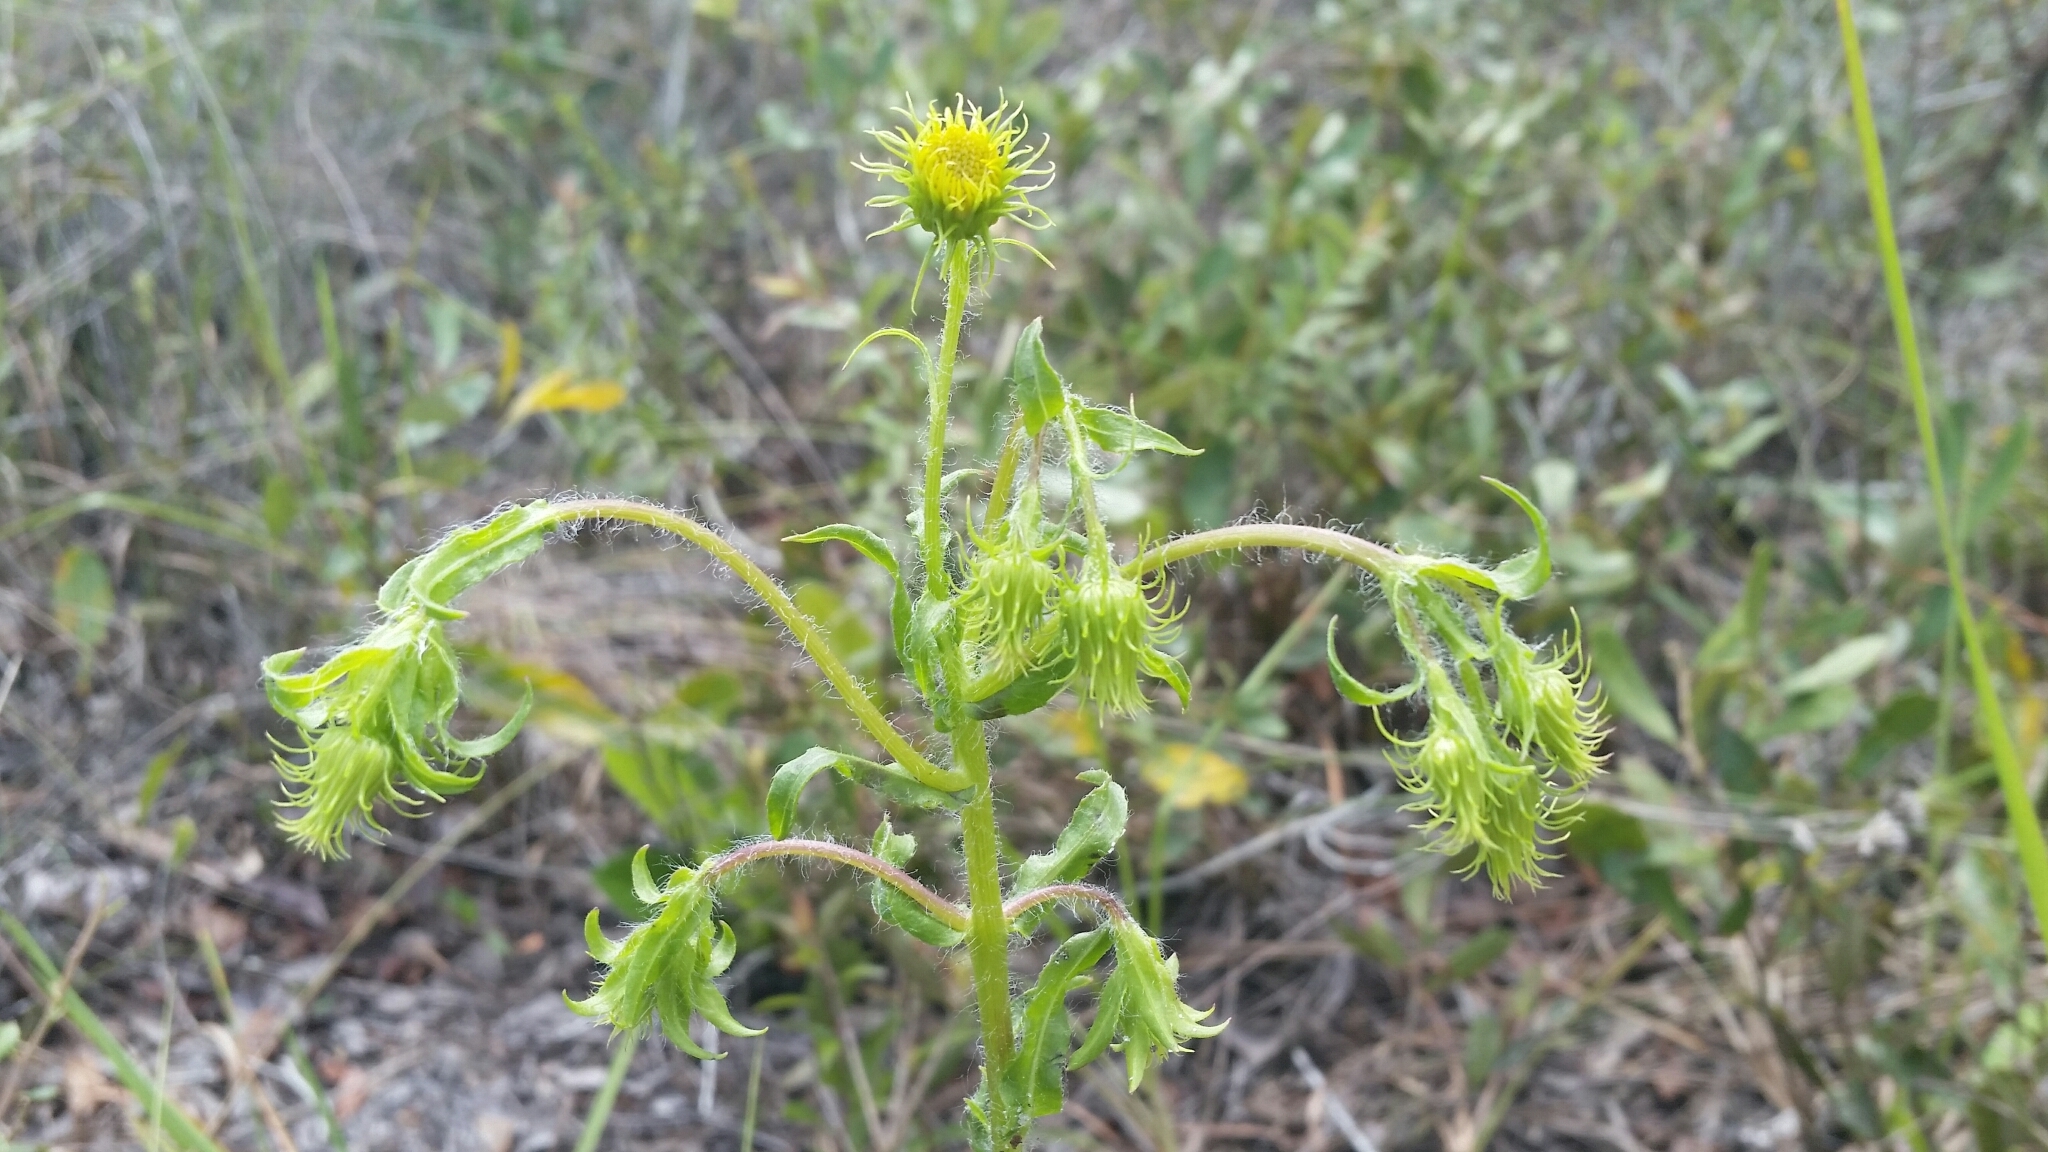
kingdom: Plantae
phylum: Tracheophyta
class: Magnoliopsida
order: Asterales
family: Asteraceae
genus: Chrysopsis
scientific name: Chrysopsis subulata
